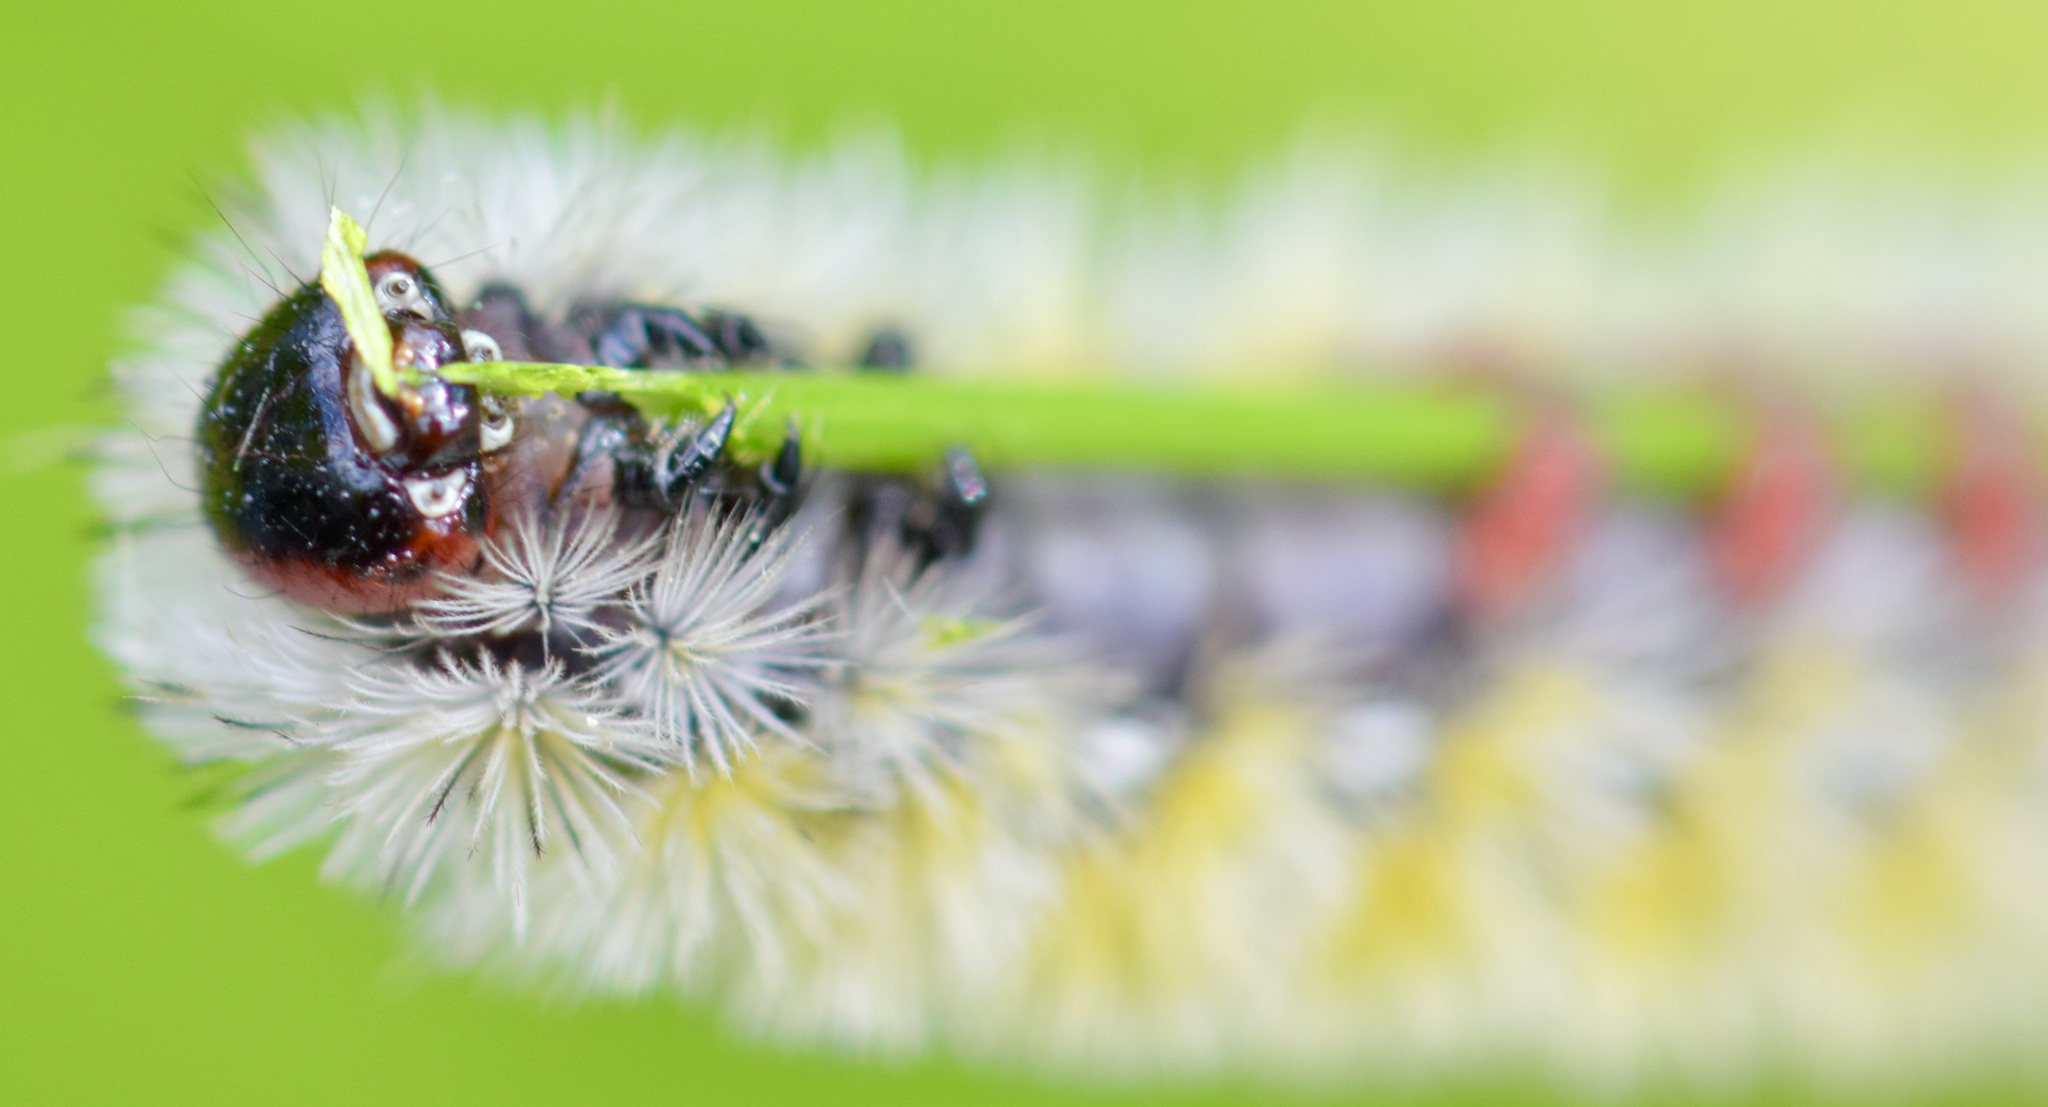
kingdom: Animalia
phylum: Arthropoda
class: Insecta
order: Lepidoptera
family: Erebidae
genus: Ctenucha
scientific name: Ctenucha virginica
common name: Virginia ctenucha moth
